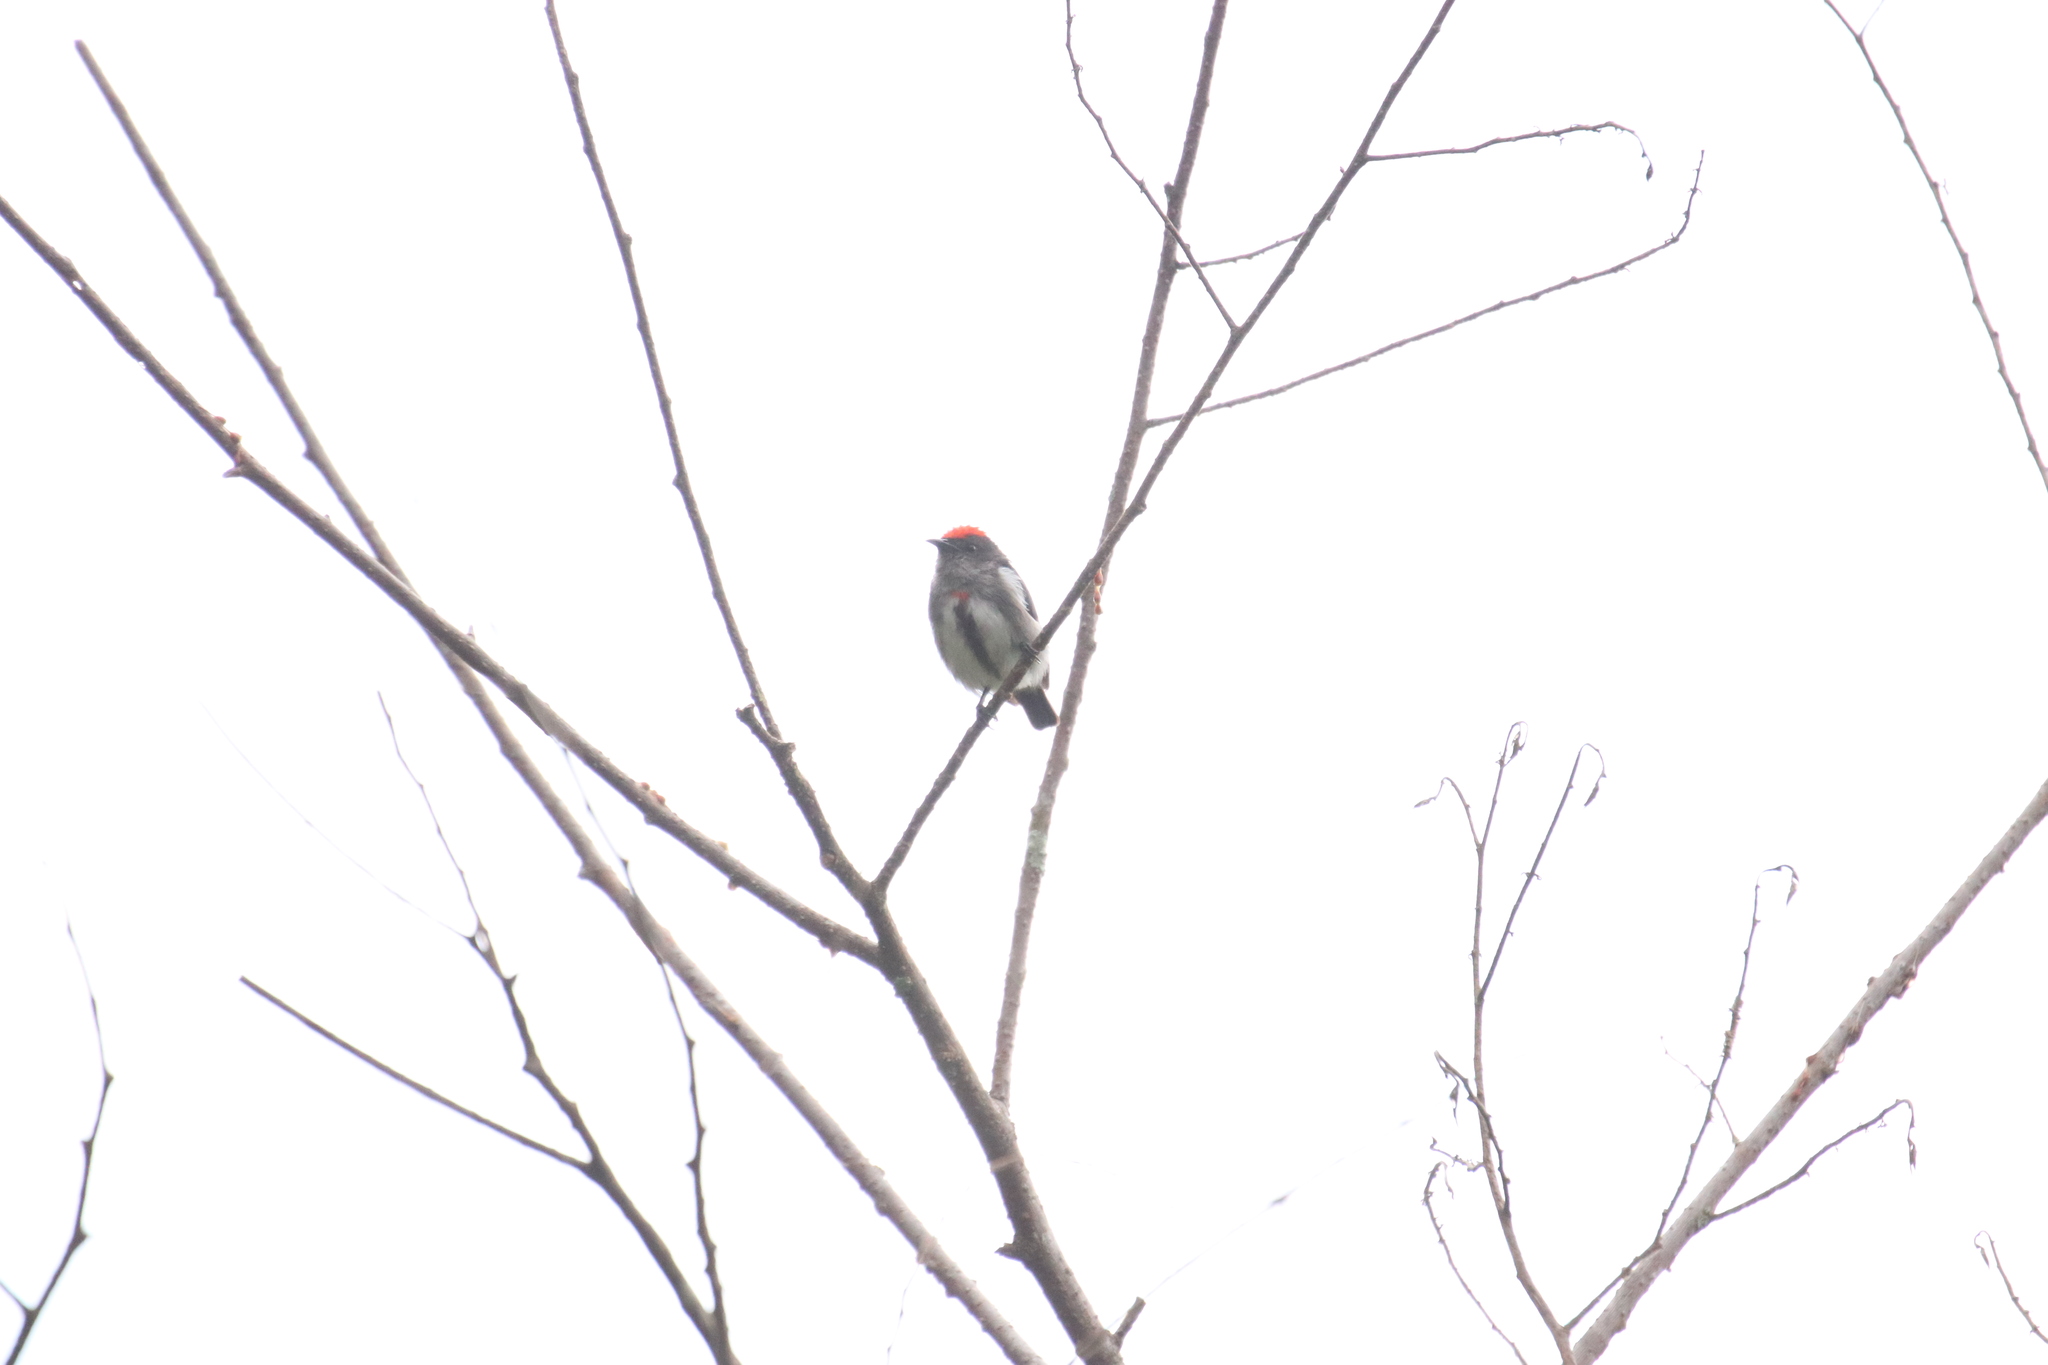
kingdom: Animalia
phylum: Chordata
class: Aves
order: Passeriformes
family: Dicaeidae
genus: Dicaeum
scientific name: Dicaeum nehrkorni
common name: Crimson-crowned flowerpecker
